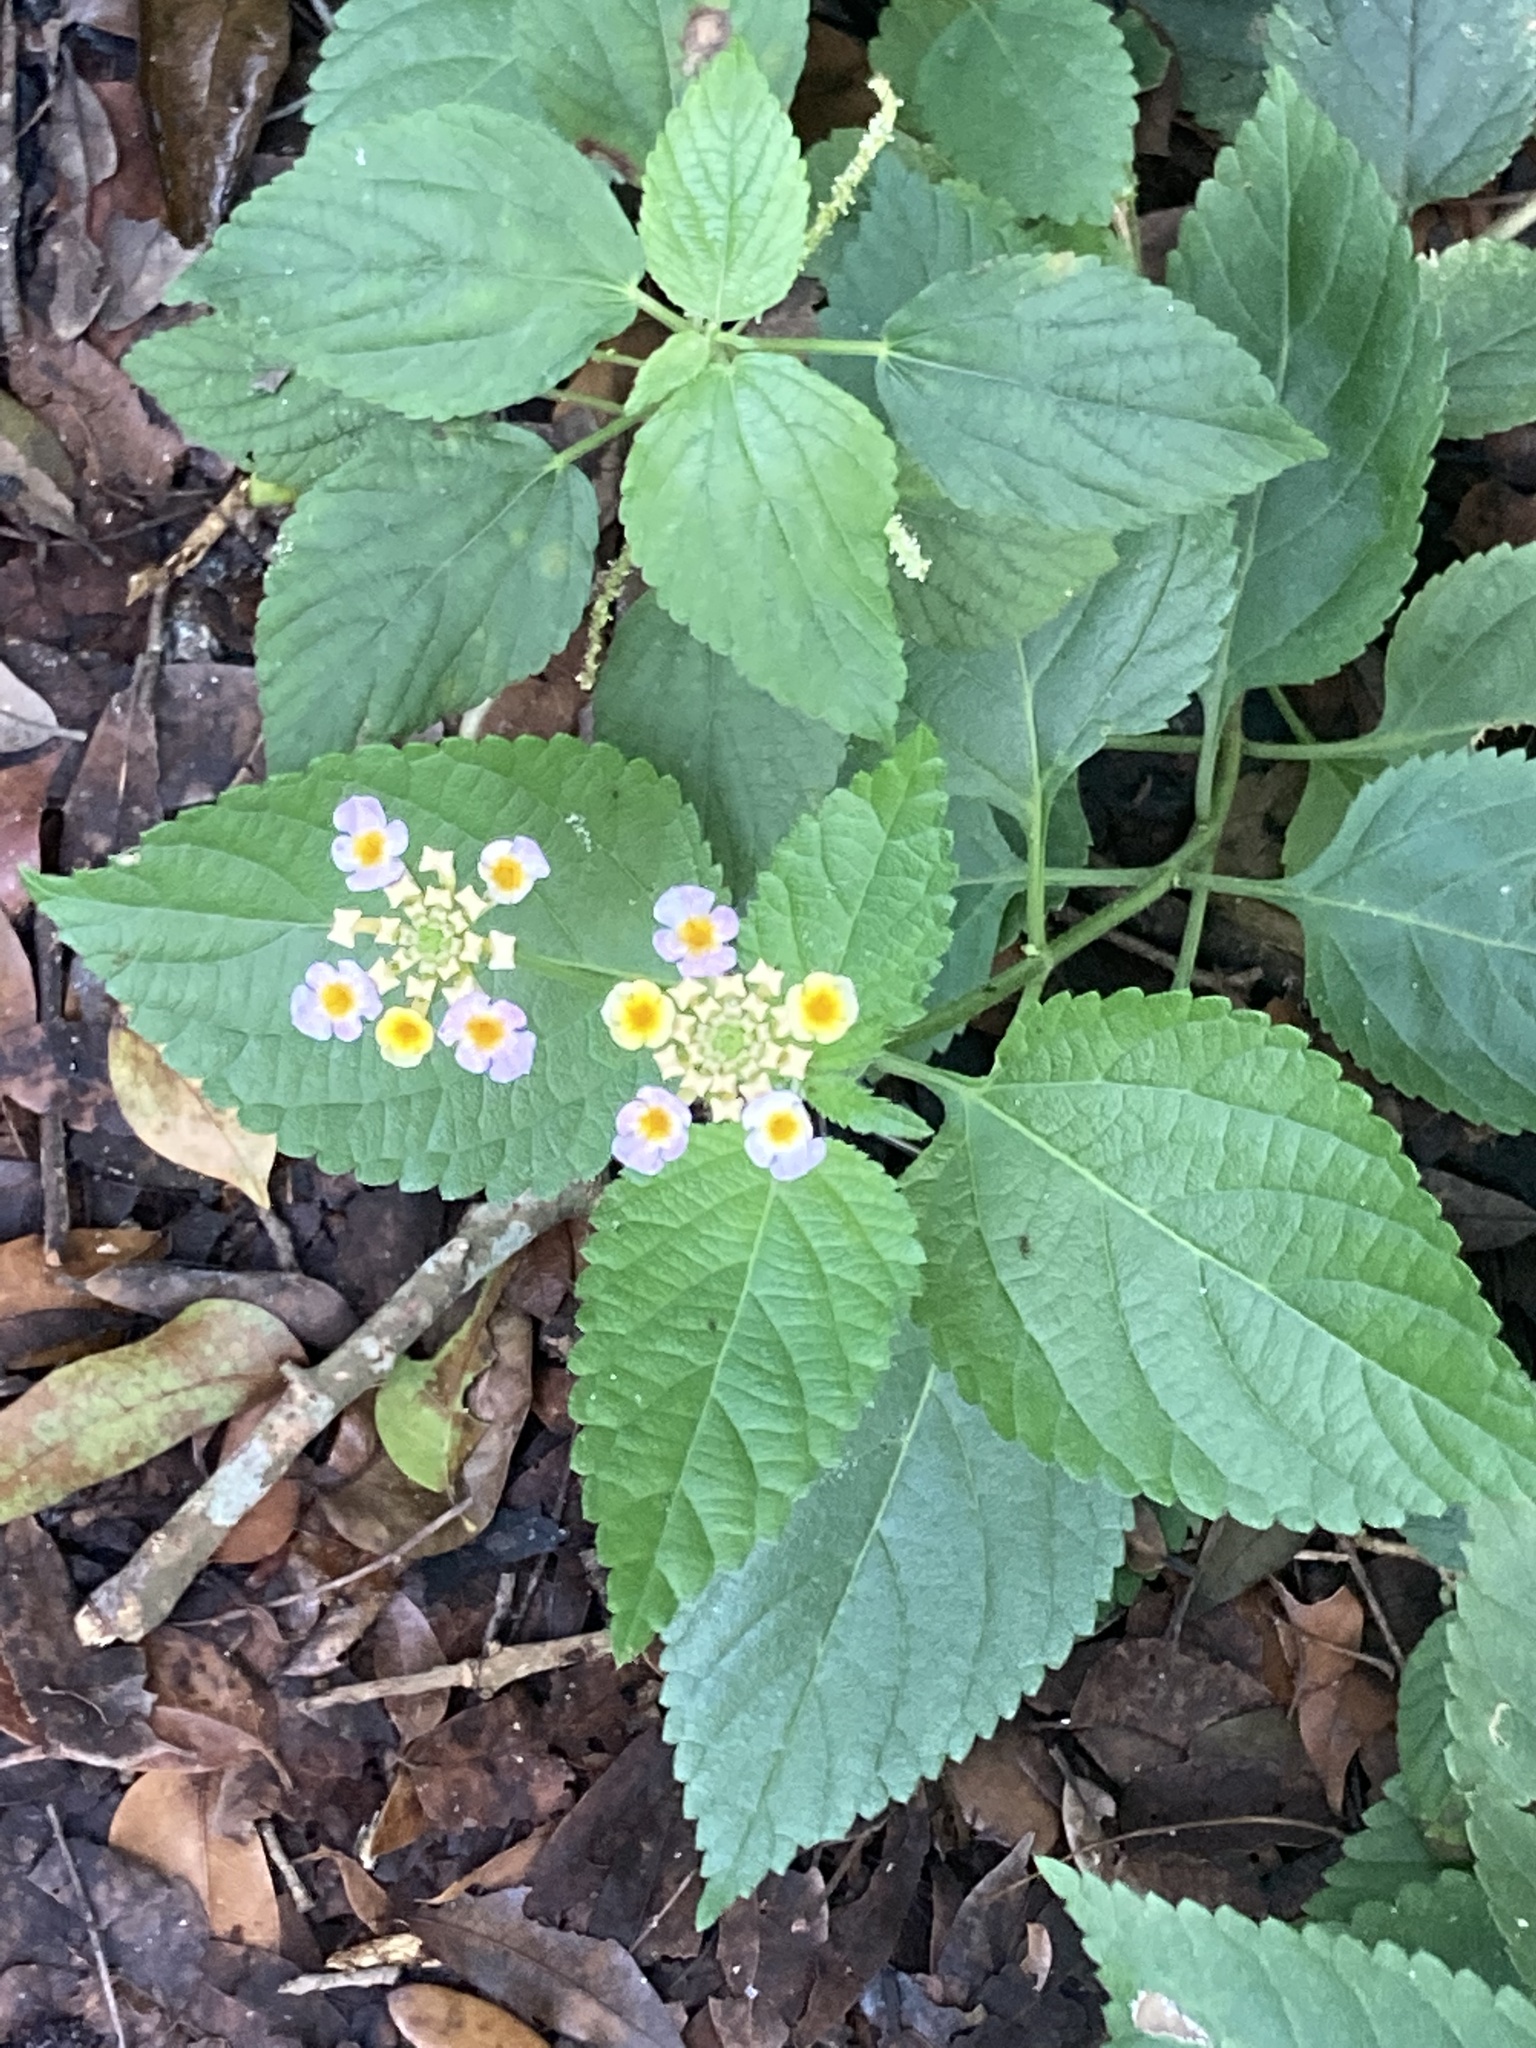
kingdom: Plantae
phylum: Tracheophyta
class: Magnoliopsida
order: Lamiales
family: Verbenaceae
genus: Lantana
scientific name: Lantana strigocamara
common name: Lantana
